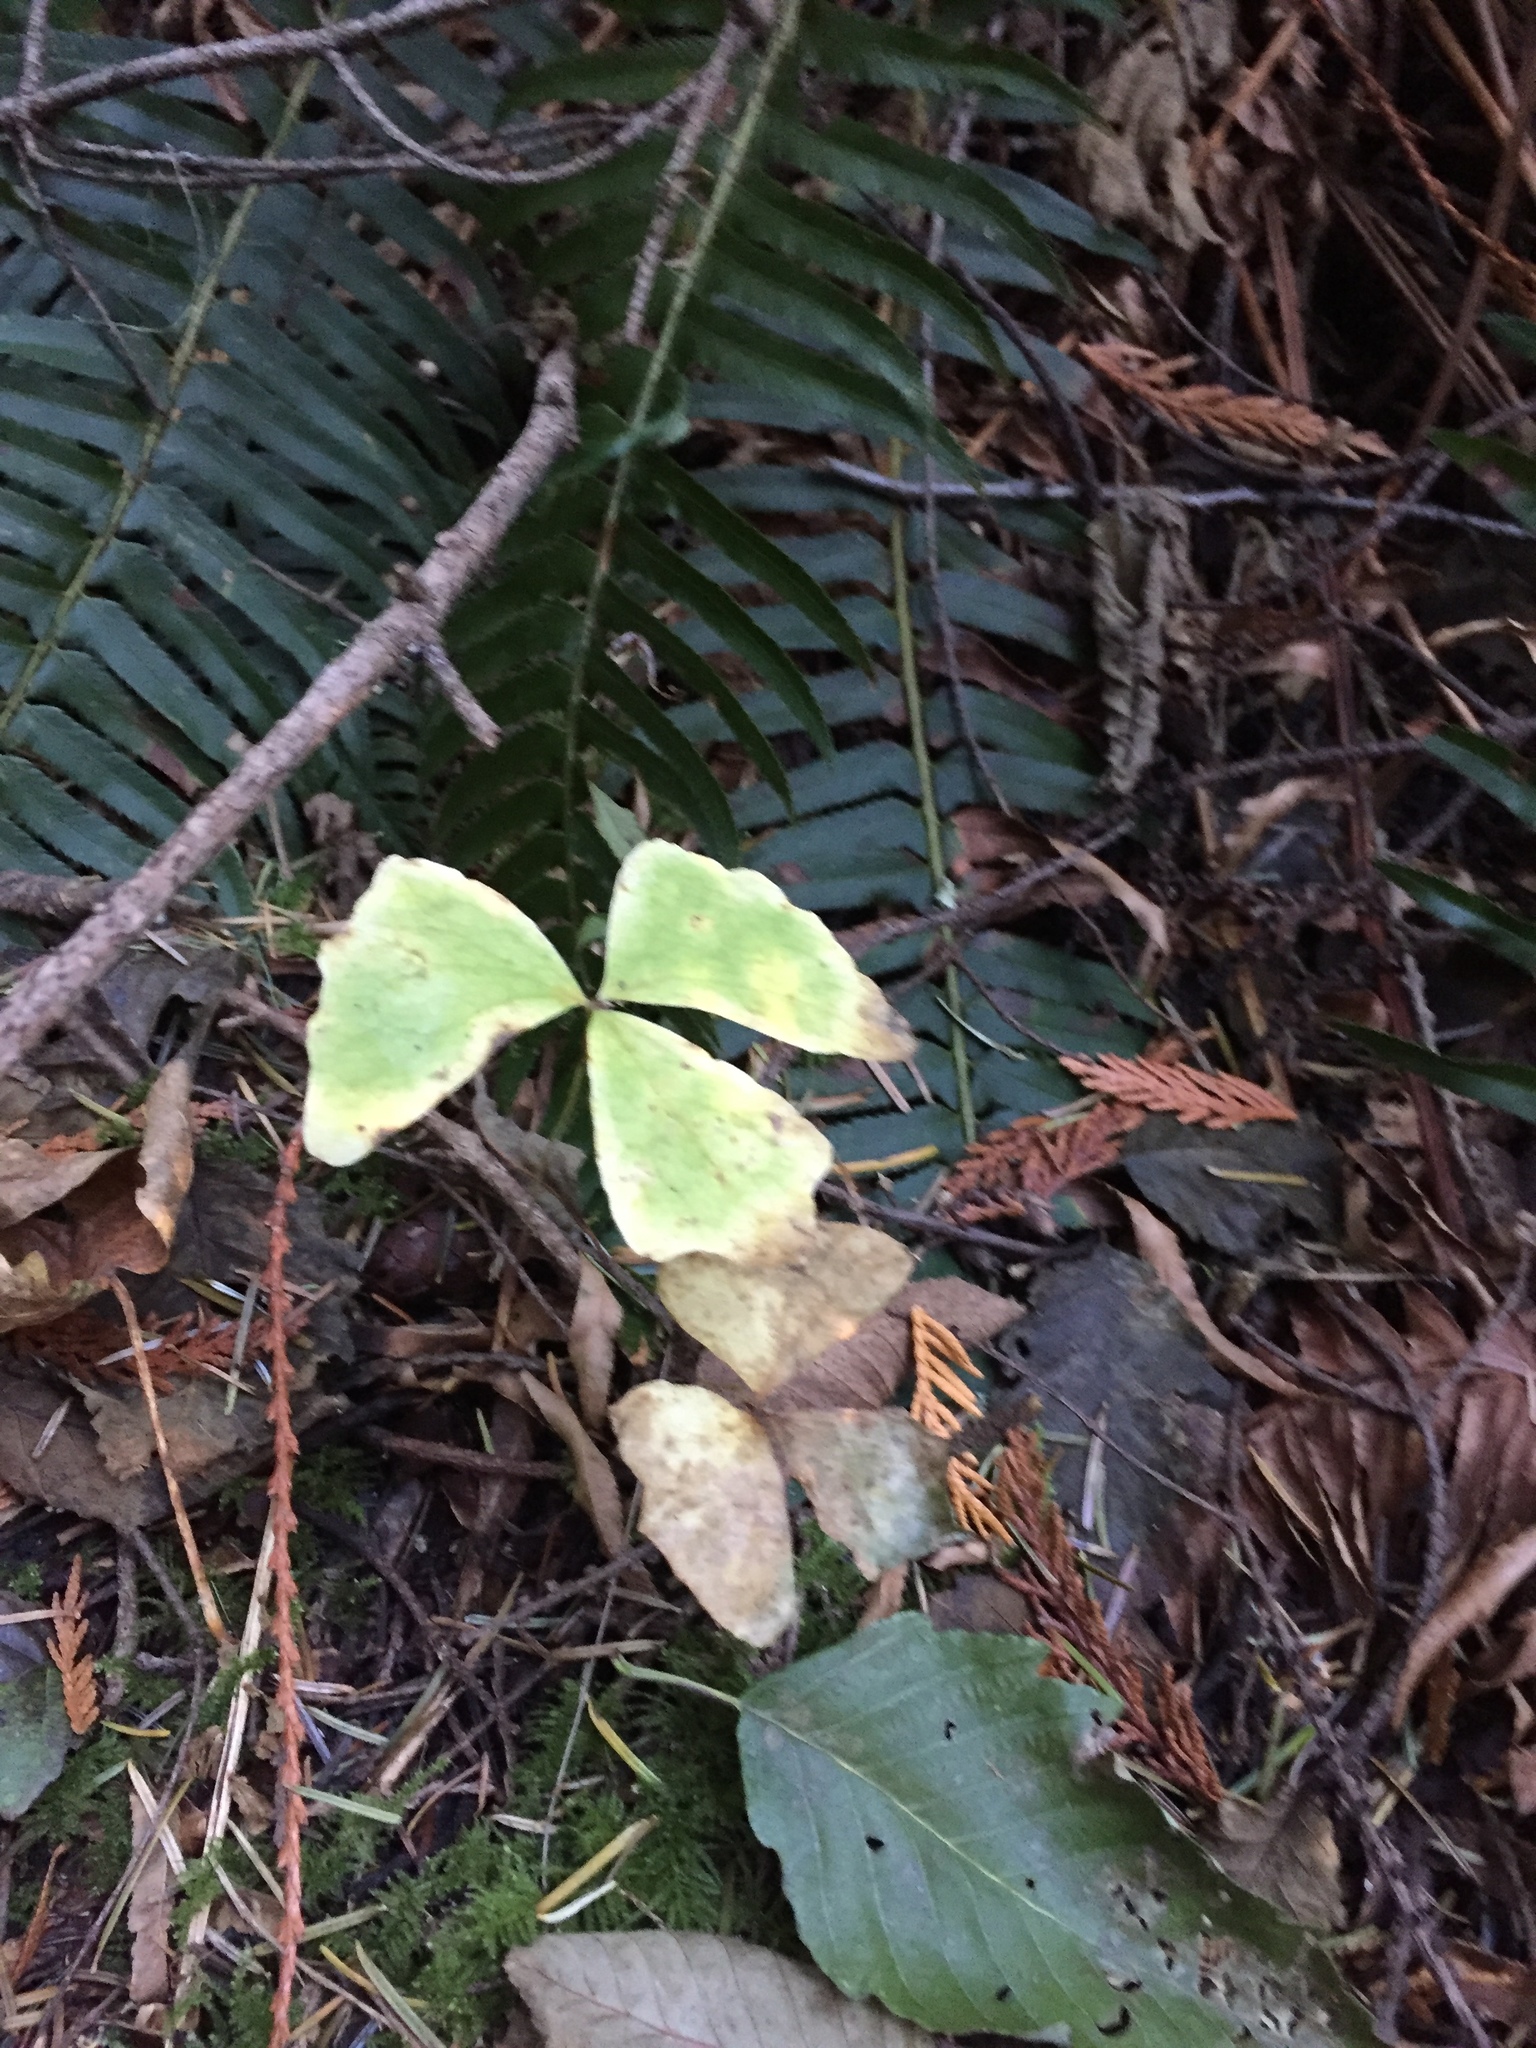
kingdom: Plantae
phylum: Tracheophyta
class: Magnoliopsida
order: Ranunculales
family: Berberidaceae
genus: Achlys
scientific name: Achlys triphylla
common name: Vanilla-leaf
